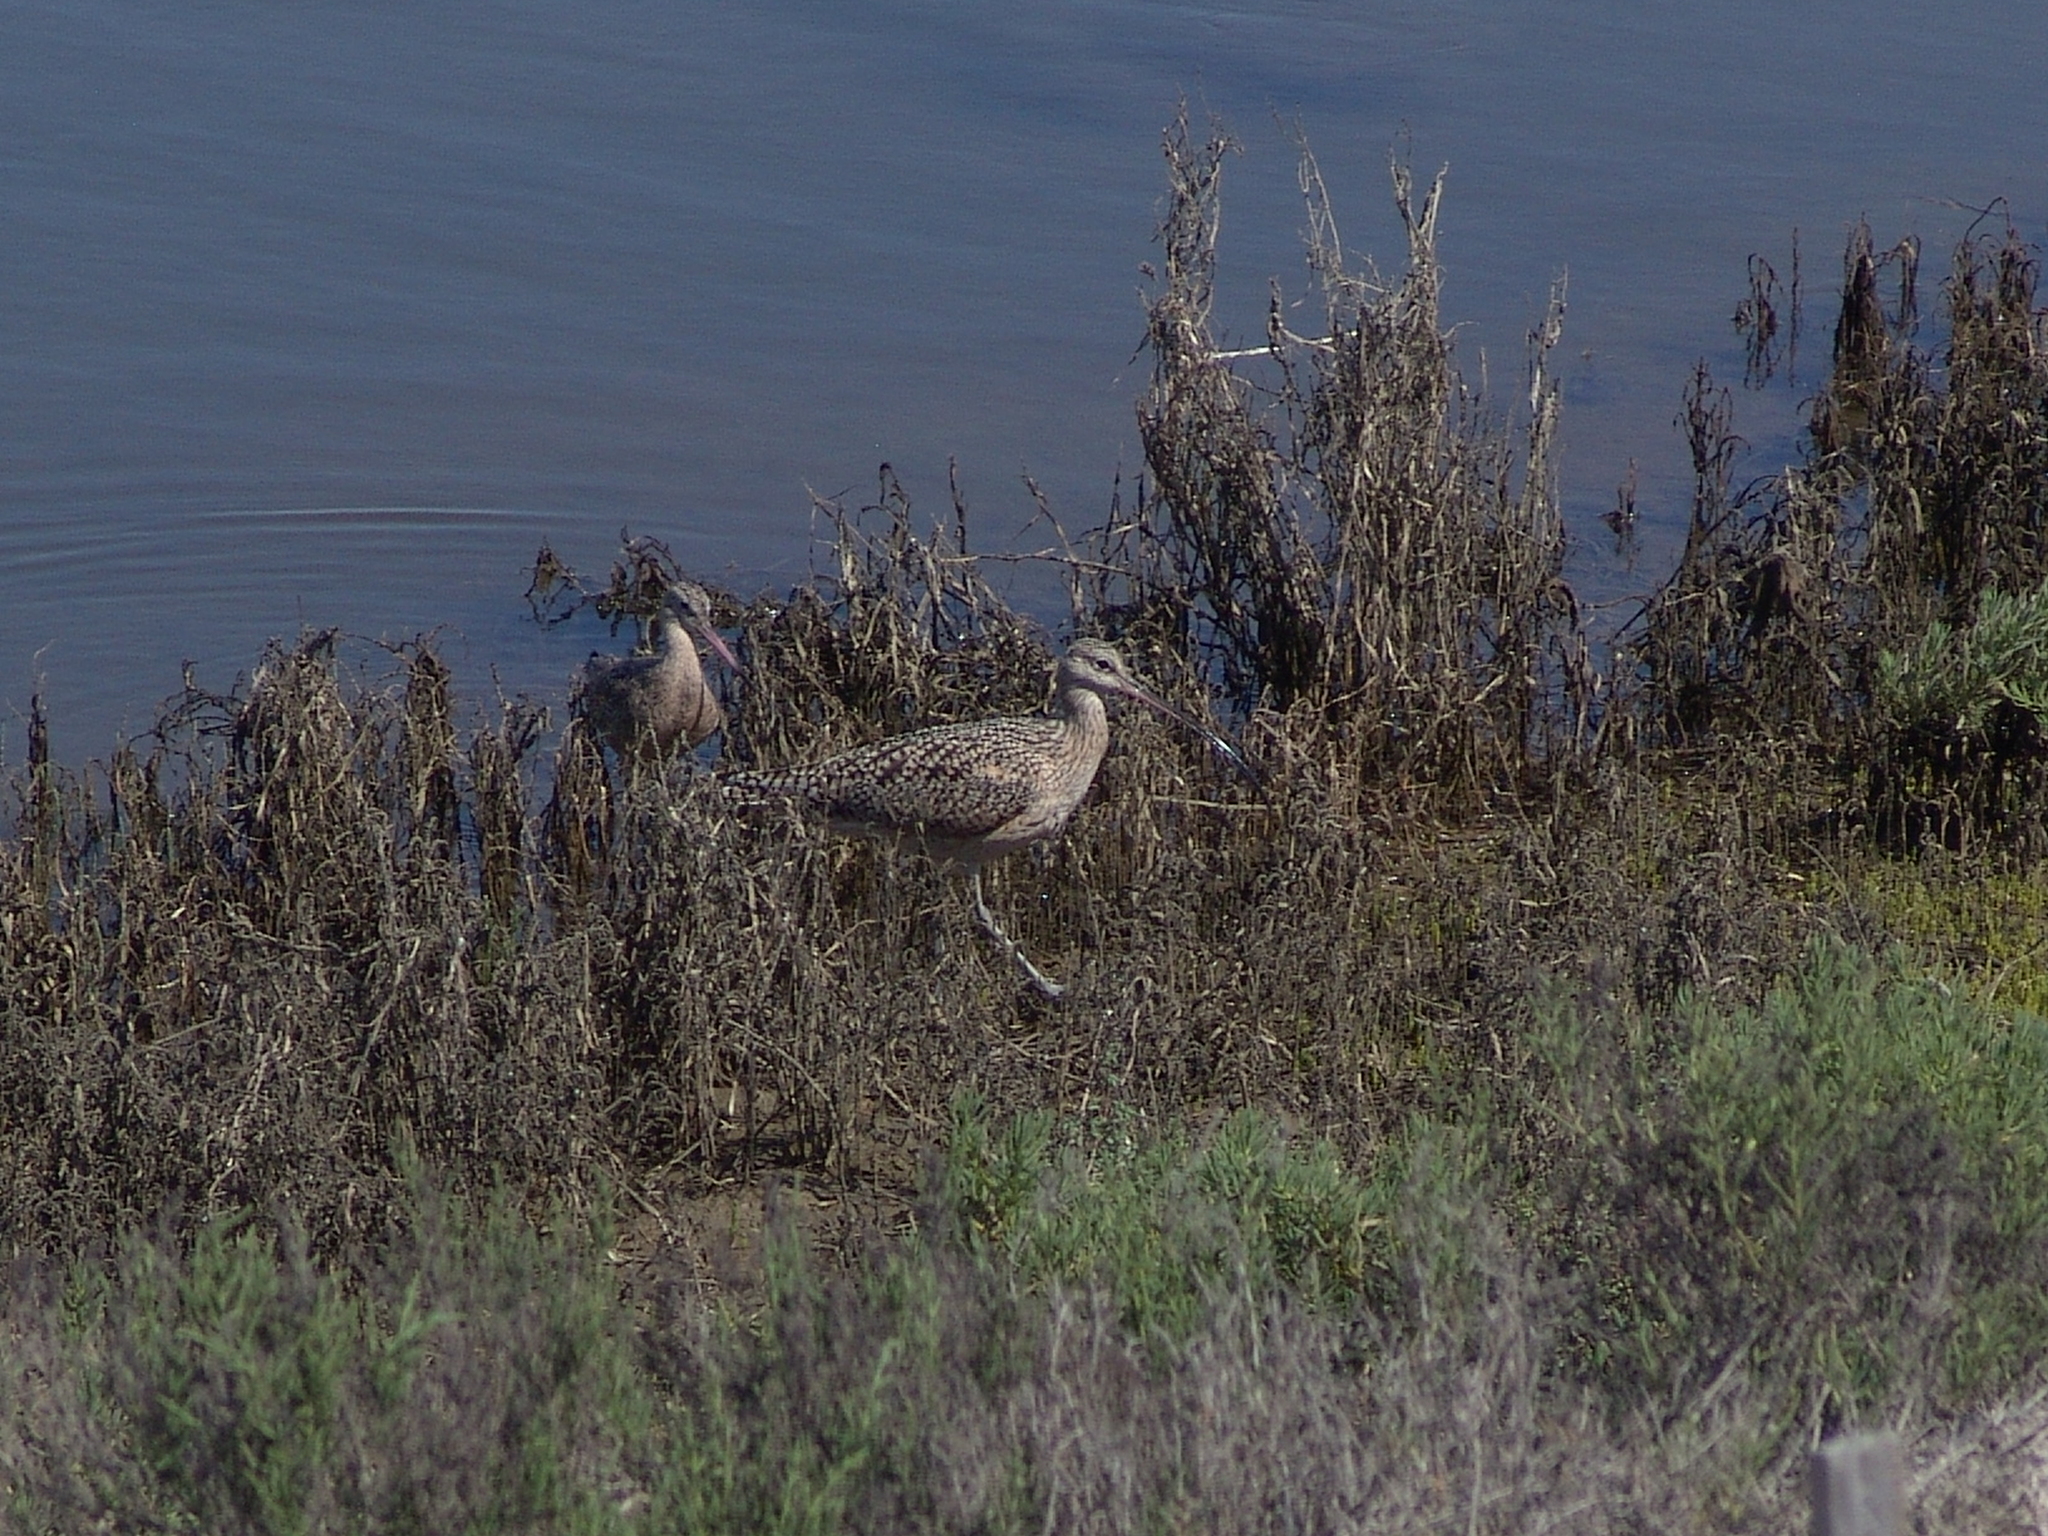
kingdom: Animalia
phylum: Chordata
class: Aves
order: Charadriiformes
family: Scolopacidae
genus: Limosa
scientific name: Limosa fedoa
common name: Marbled godwit
